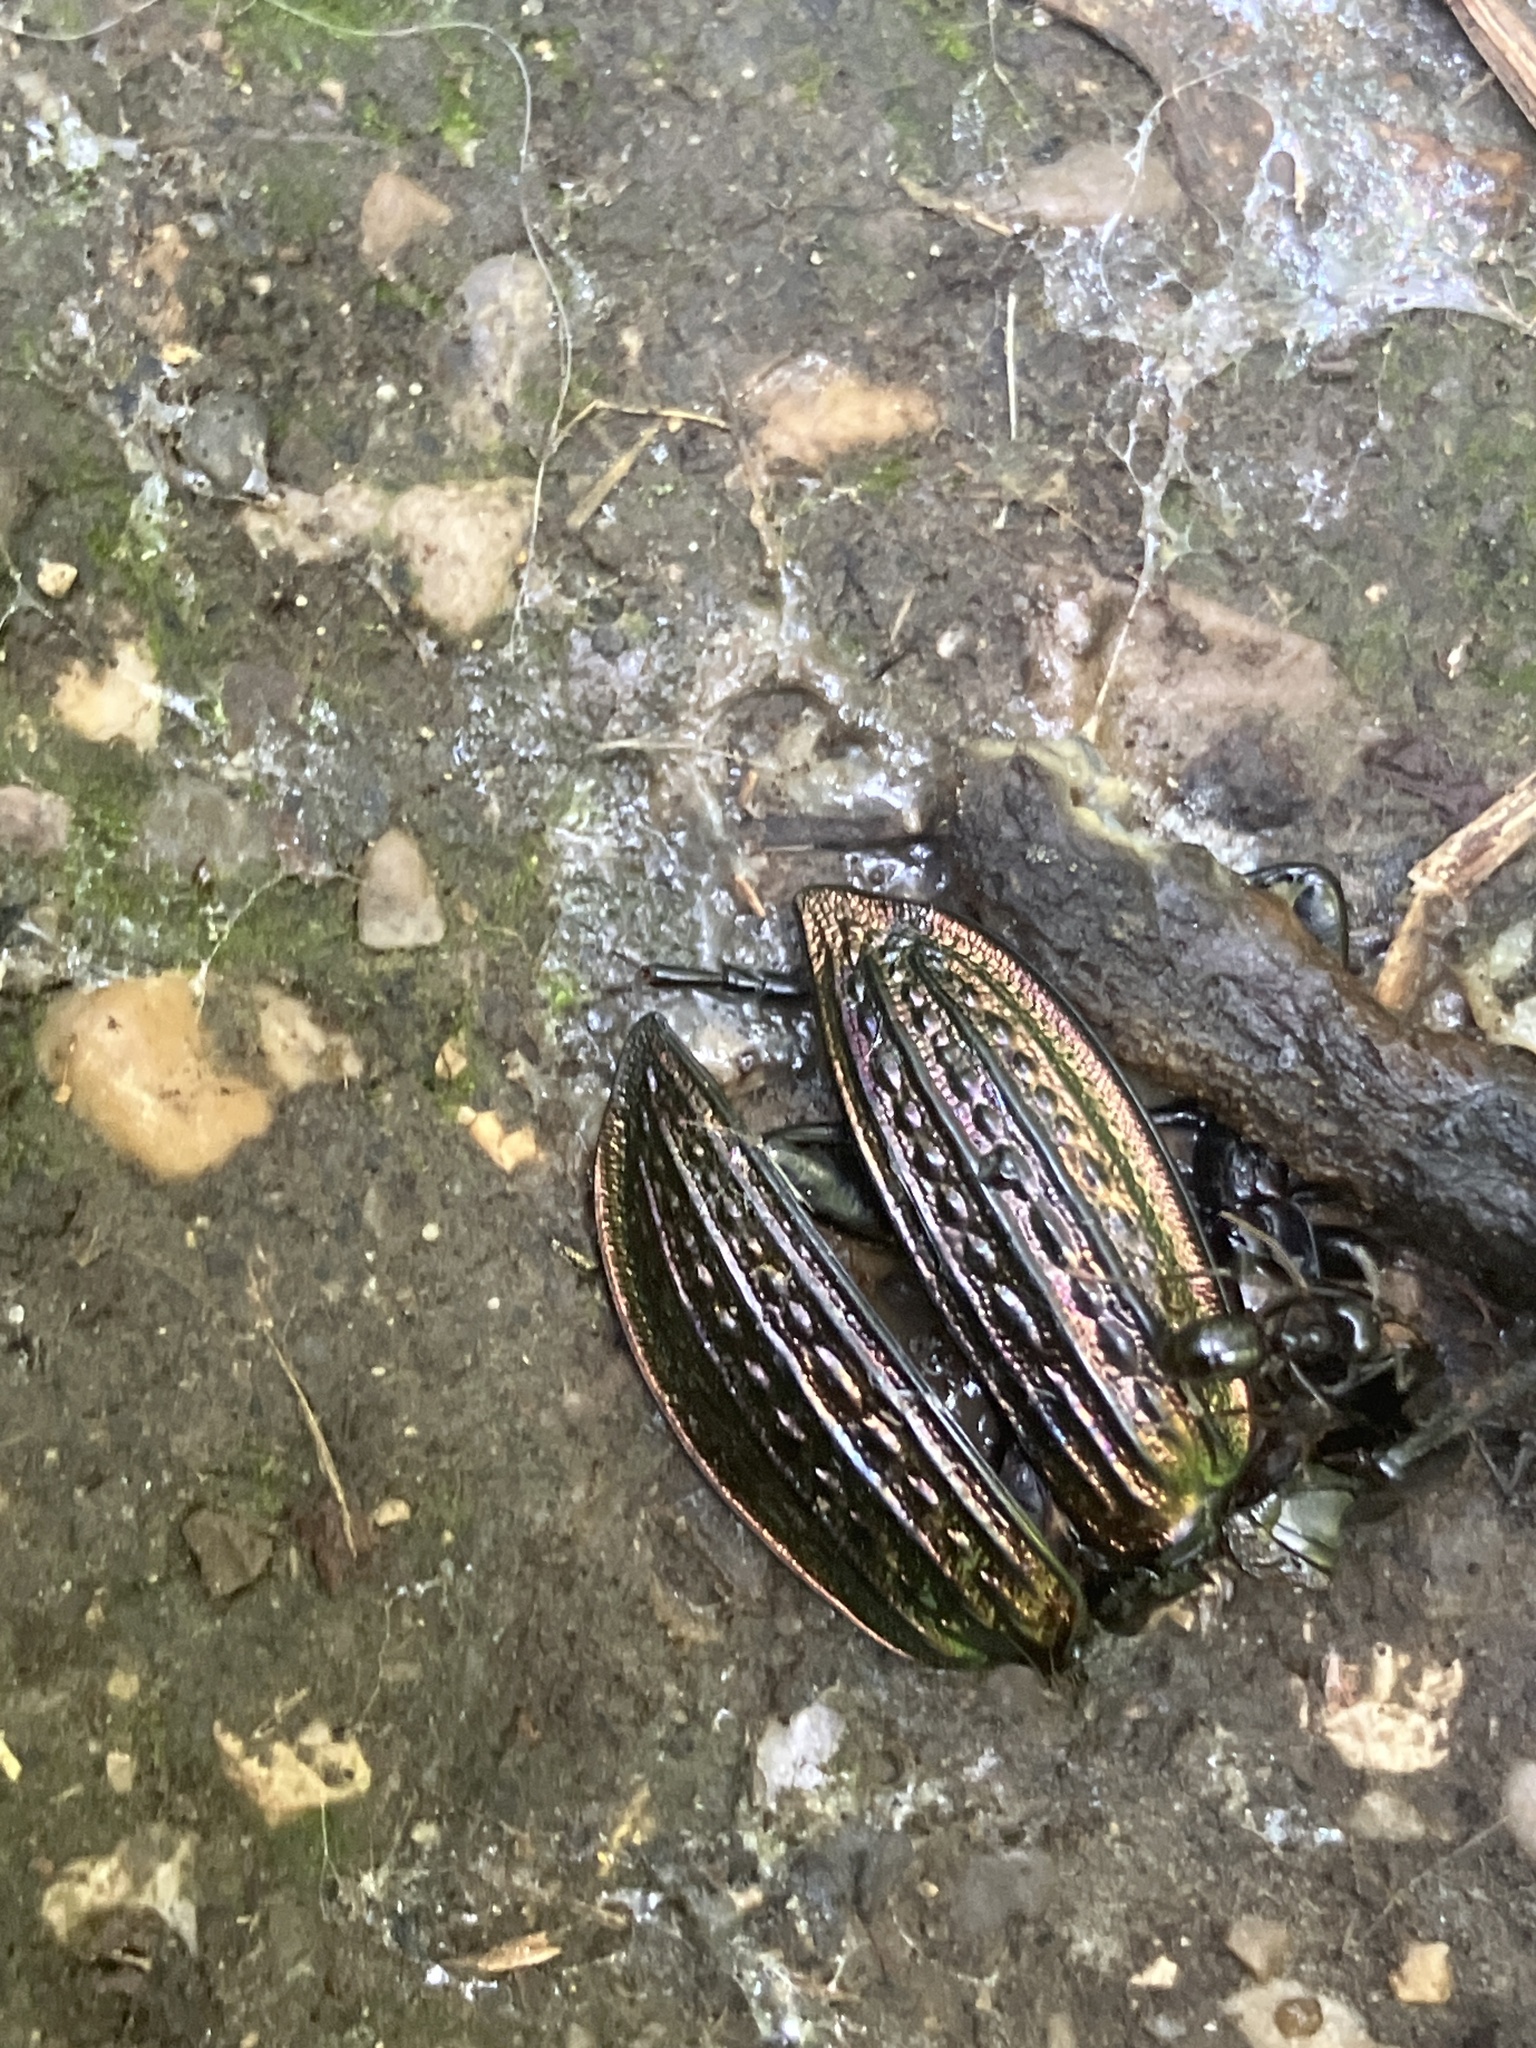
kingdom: Animalia
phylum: Arthropoda
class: Insecta
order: Coleoptera
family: Carabidae
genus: Carabus
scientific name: Carabus ulrichii
